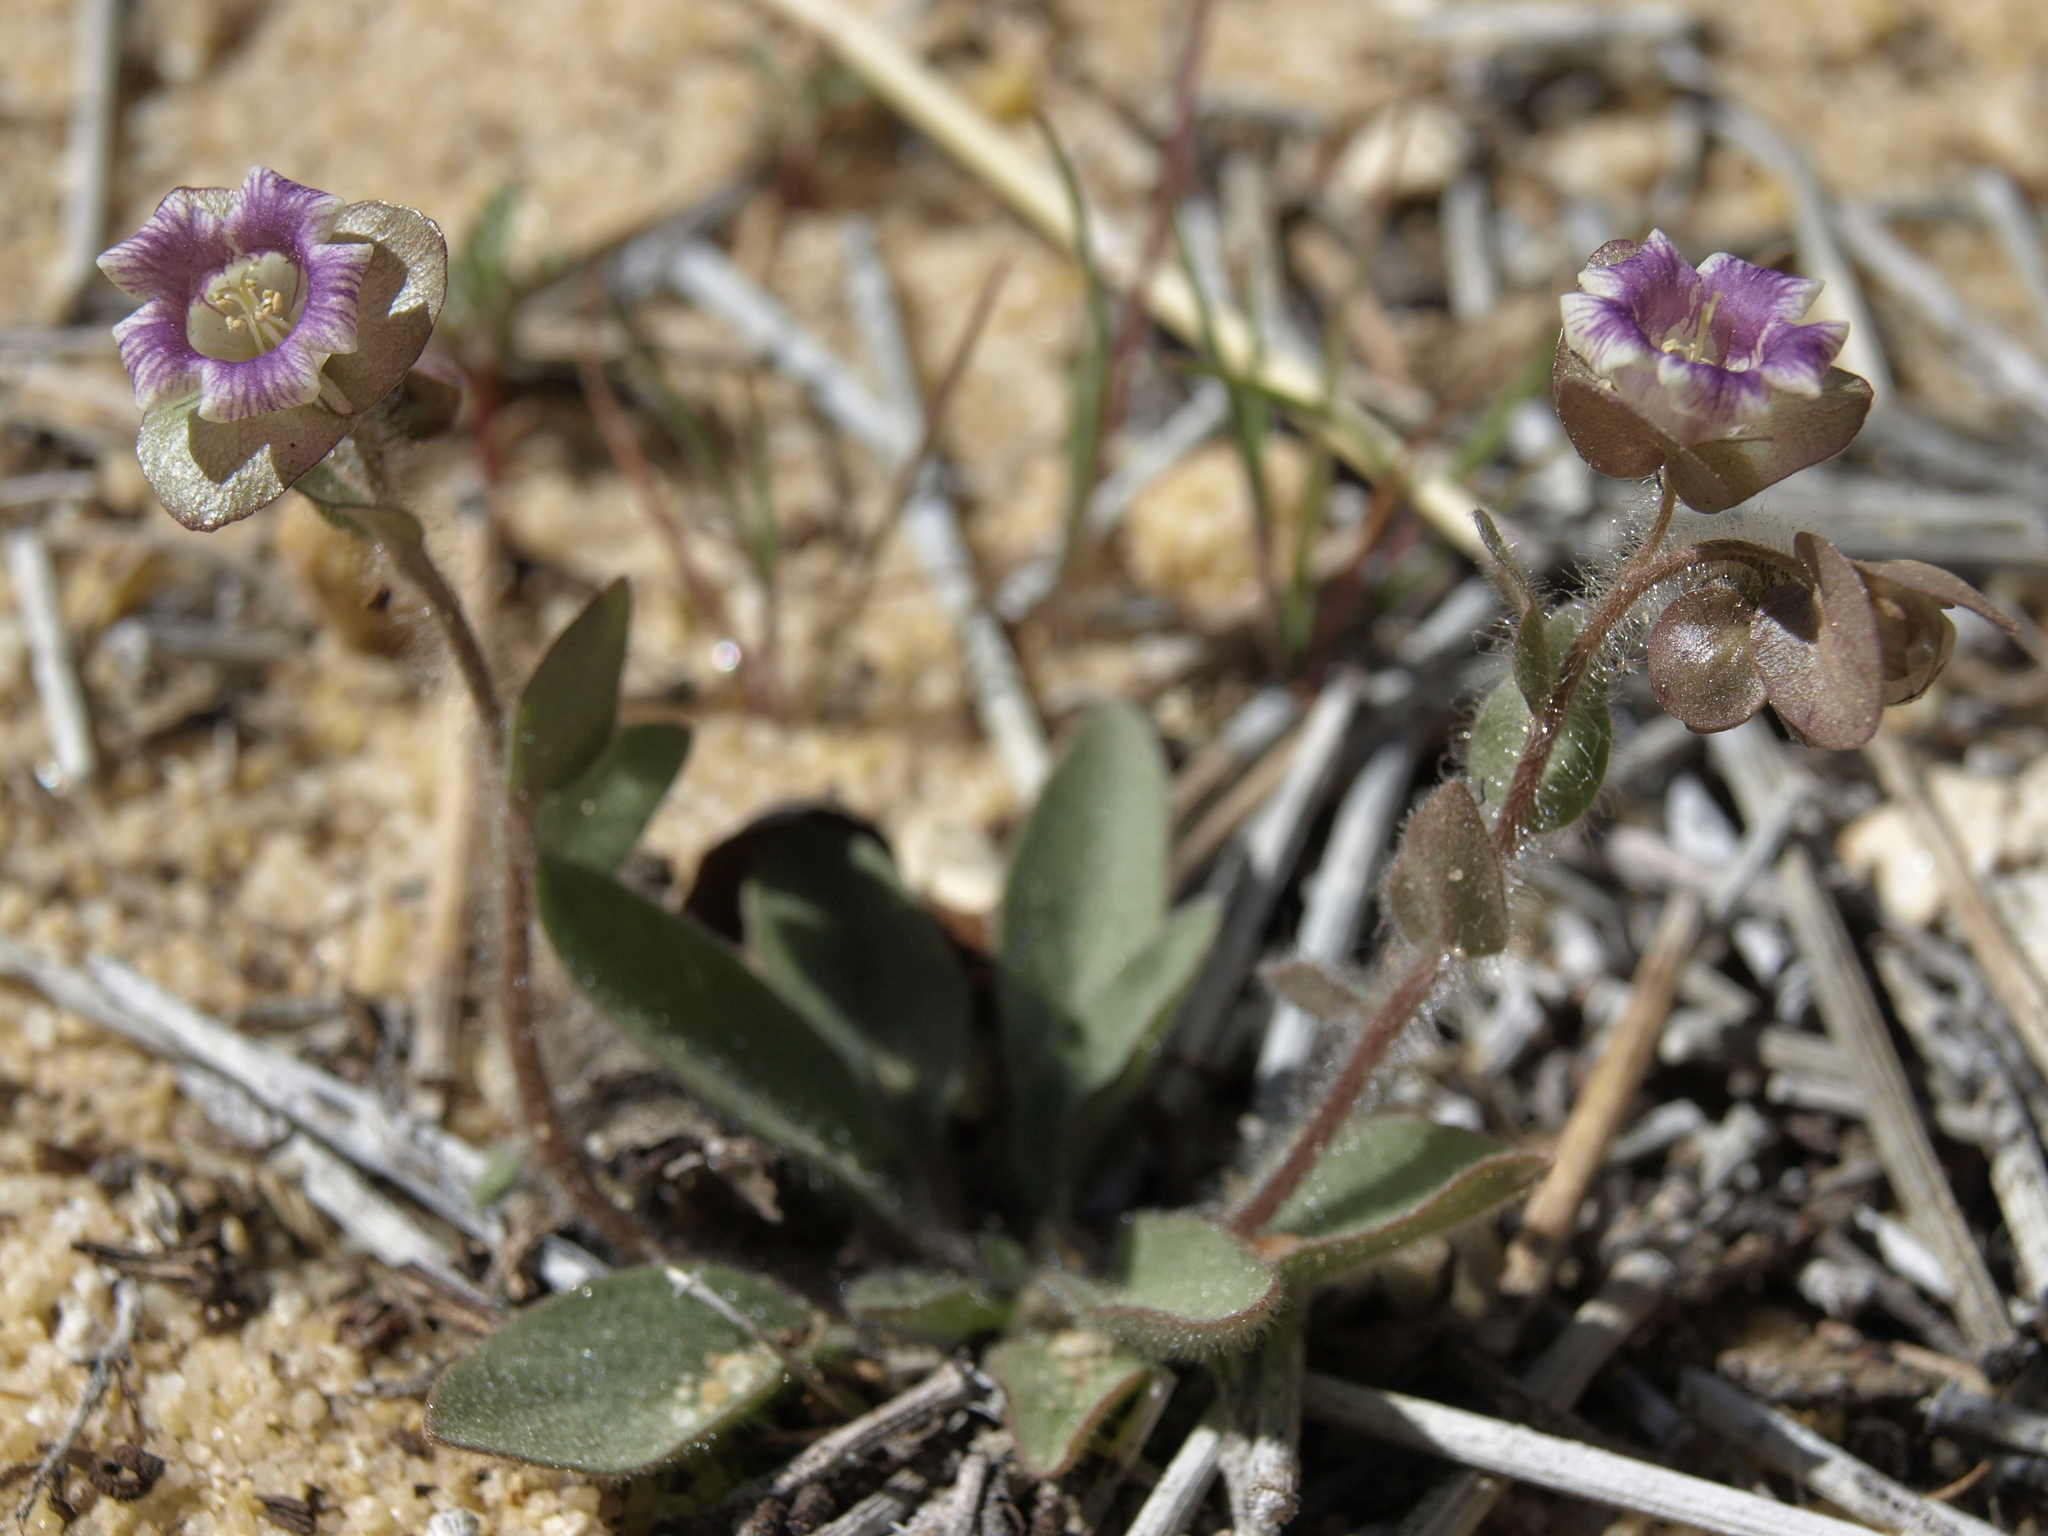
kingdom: Plantae
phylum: Tracheophyta
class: Magnoliopsida
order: Boraginales
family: Hydrophyllaceae
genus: Tricardia
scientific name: Tricardia watsonii
